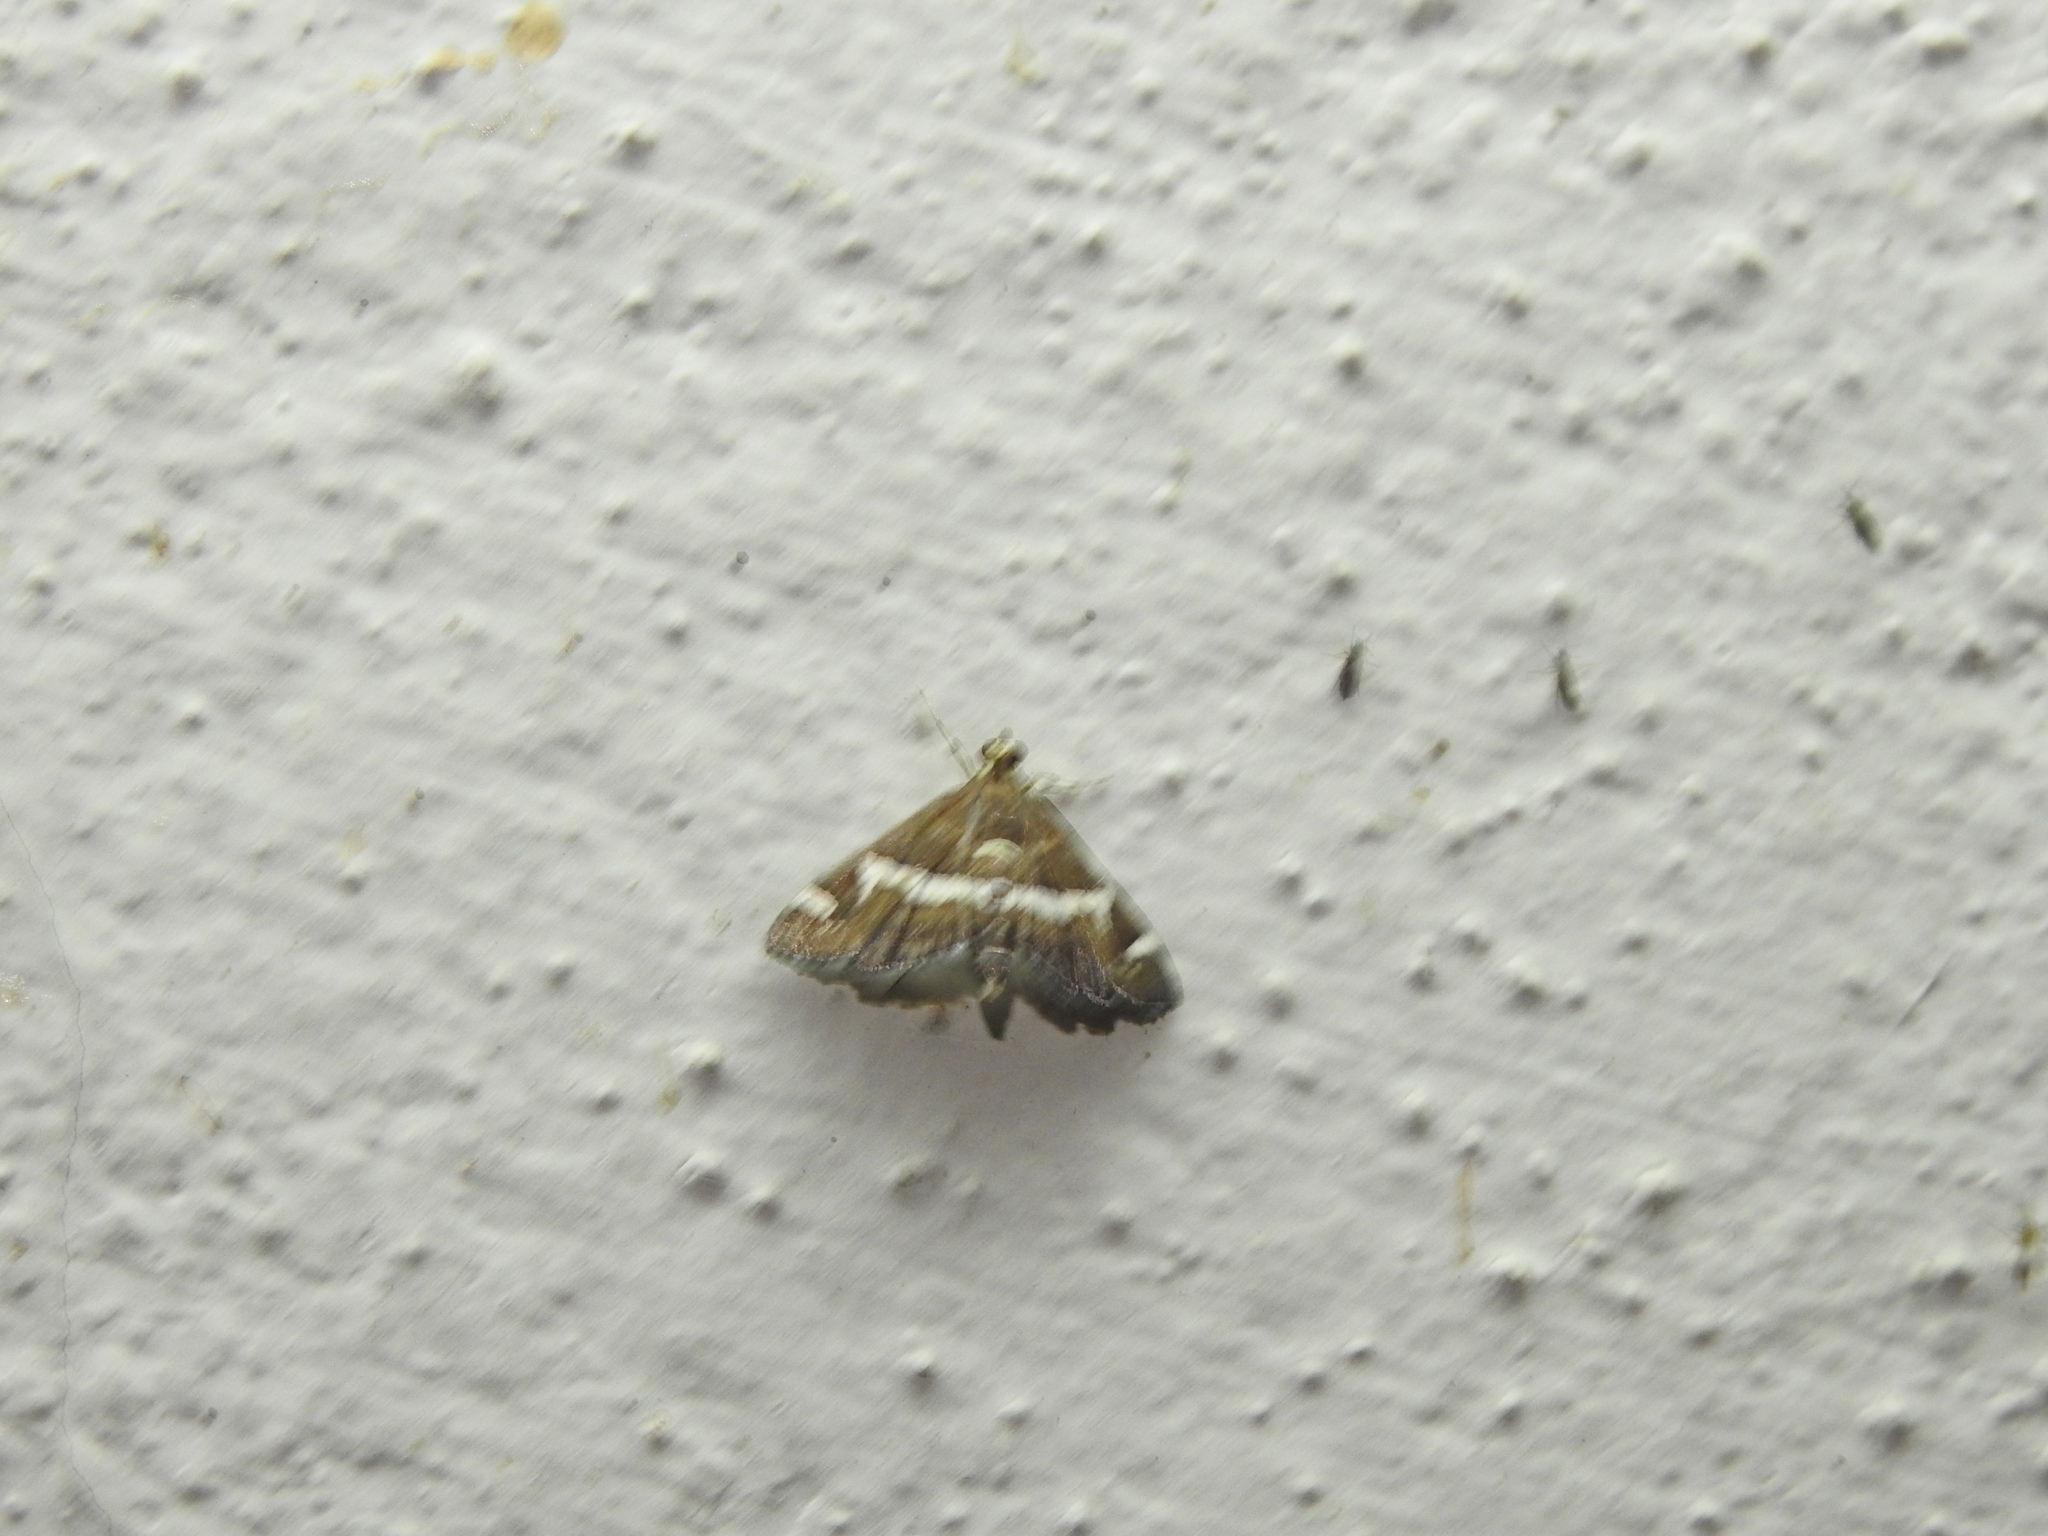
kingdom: Animalia
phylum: Arthropoda
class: Insecta
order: Lepidoptera
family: Crambidae
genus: Spoladea
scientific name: Spoladea recurvalis
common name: Beet webworm moth
